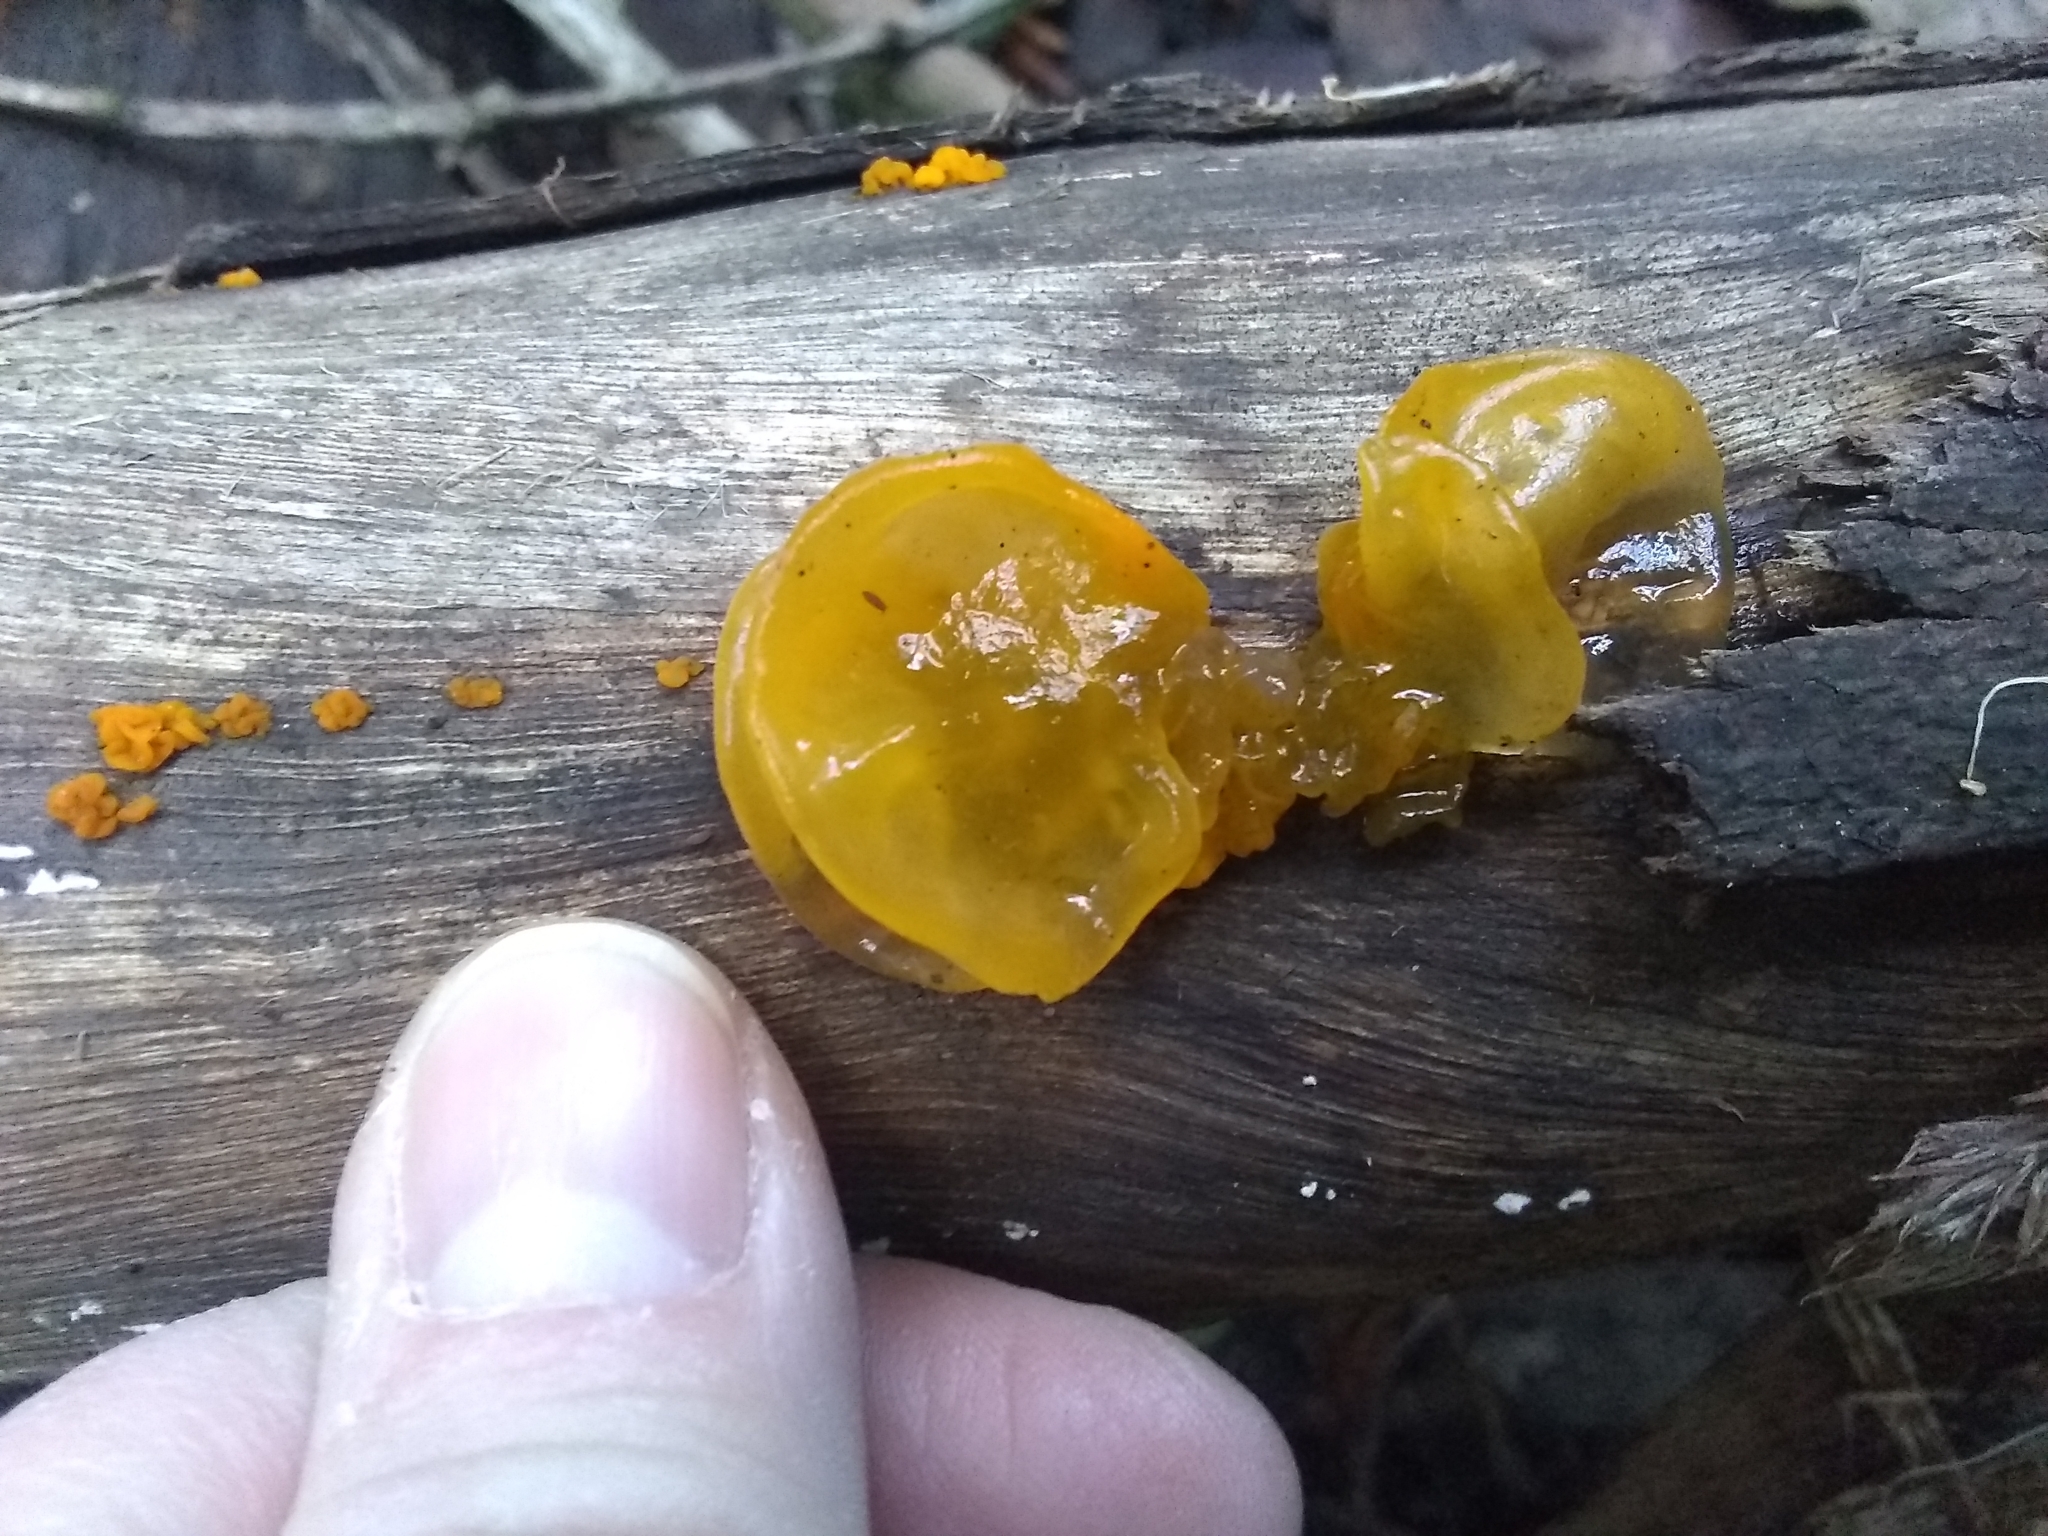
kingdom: Fungi
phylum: Basidiomycota
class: Tremellomycetes
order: Tremellales
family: Tremellaceae
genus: Tremella
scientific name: Tremella mesenterica
